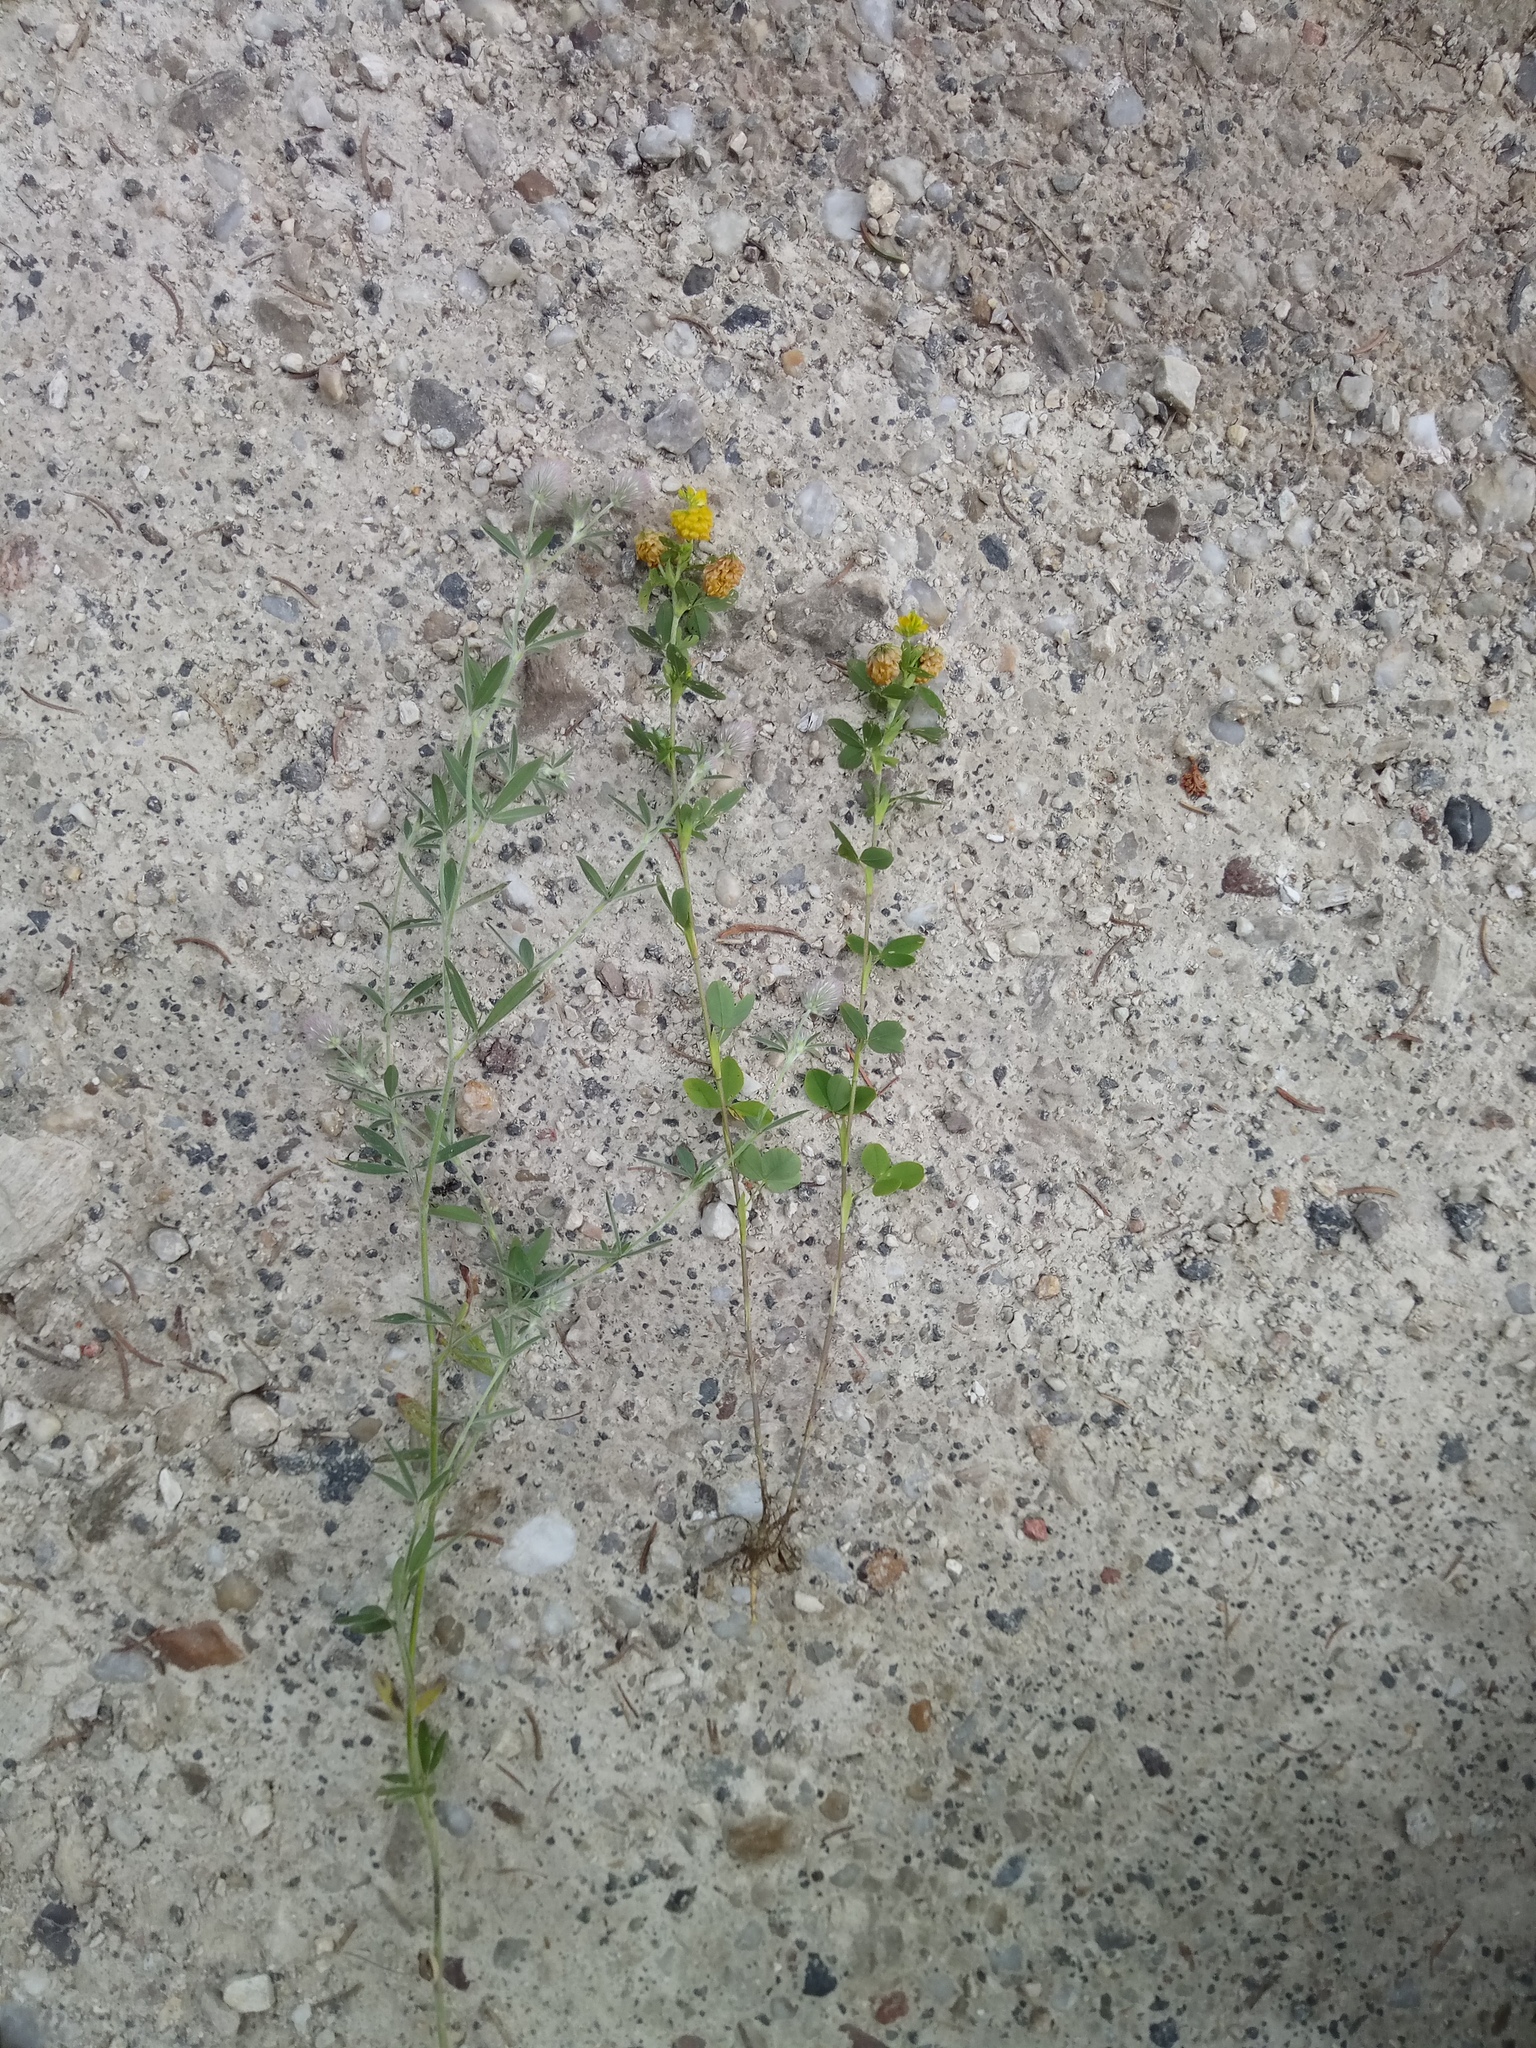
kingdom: Plantae
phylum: Tracheophyta
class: Magnoliopsida
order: Fabales
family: Fabaceae
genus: Trifolium
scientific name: Trifolium arvense
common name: Hare's-foot clover
